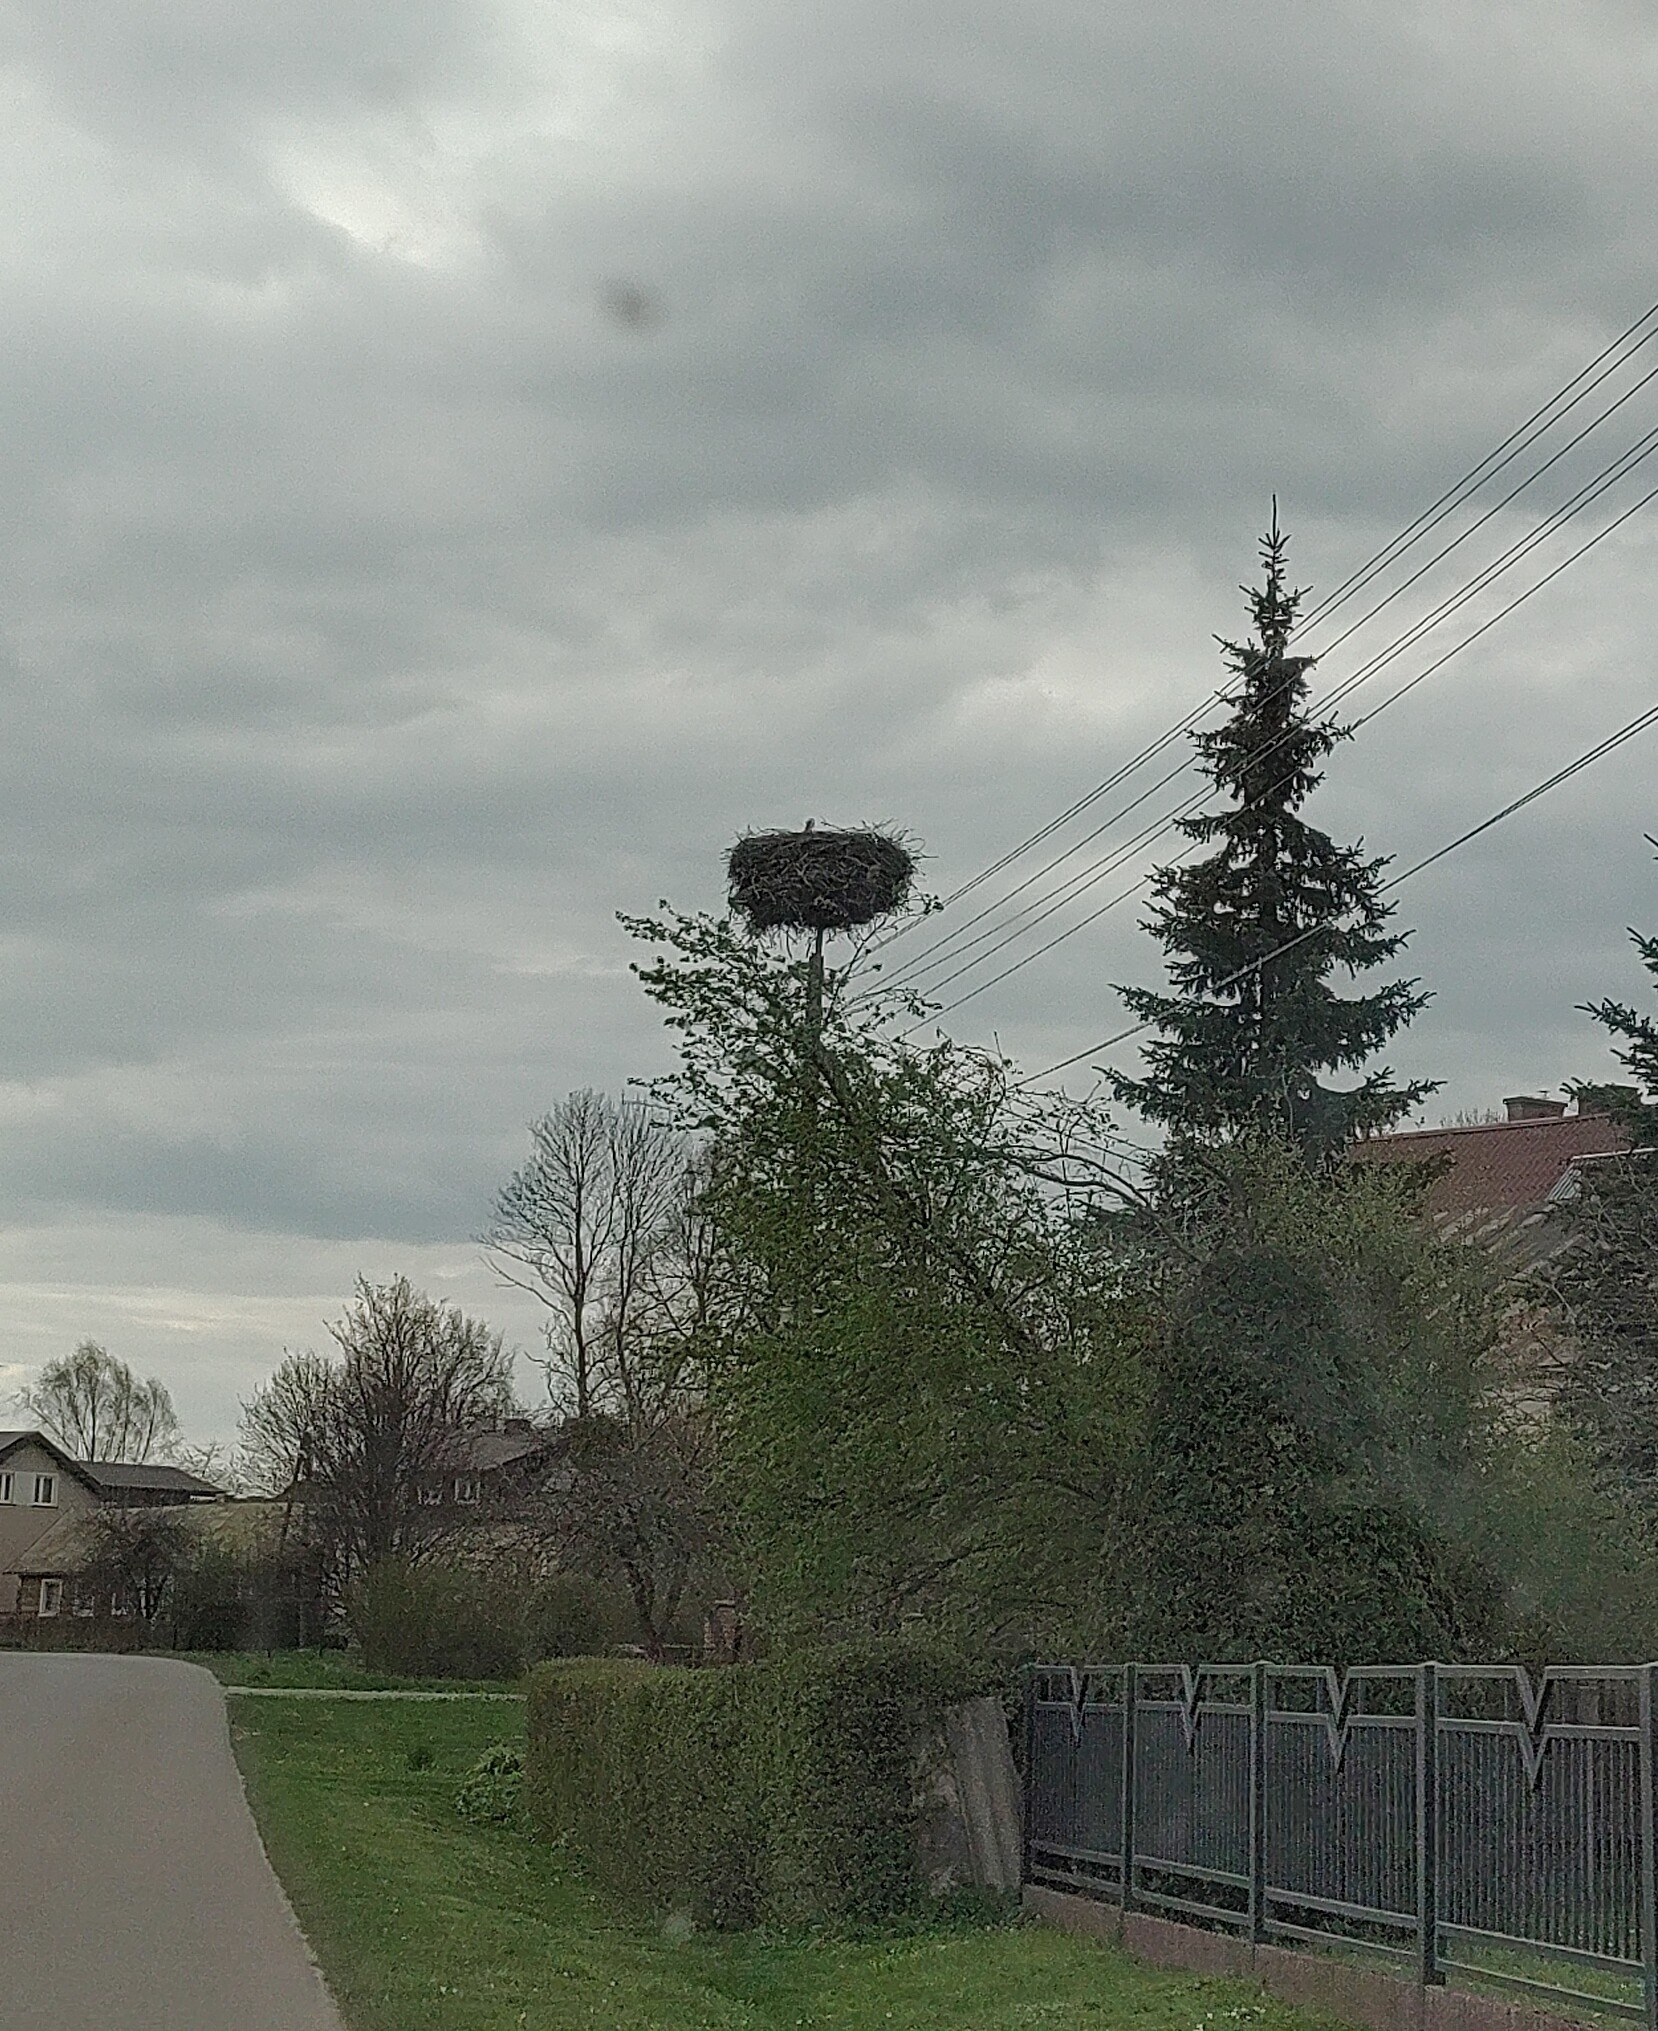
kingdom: Animalia
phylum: Chordata
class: Aves
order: Ciconiiformes
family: Ciconiidae
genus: Ciconia
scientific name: Ciconia ciconia
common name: White stork
